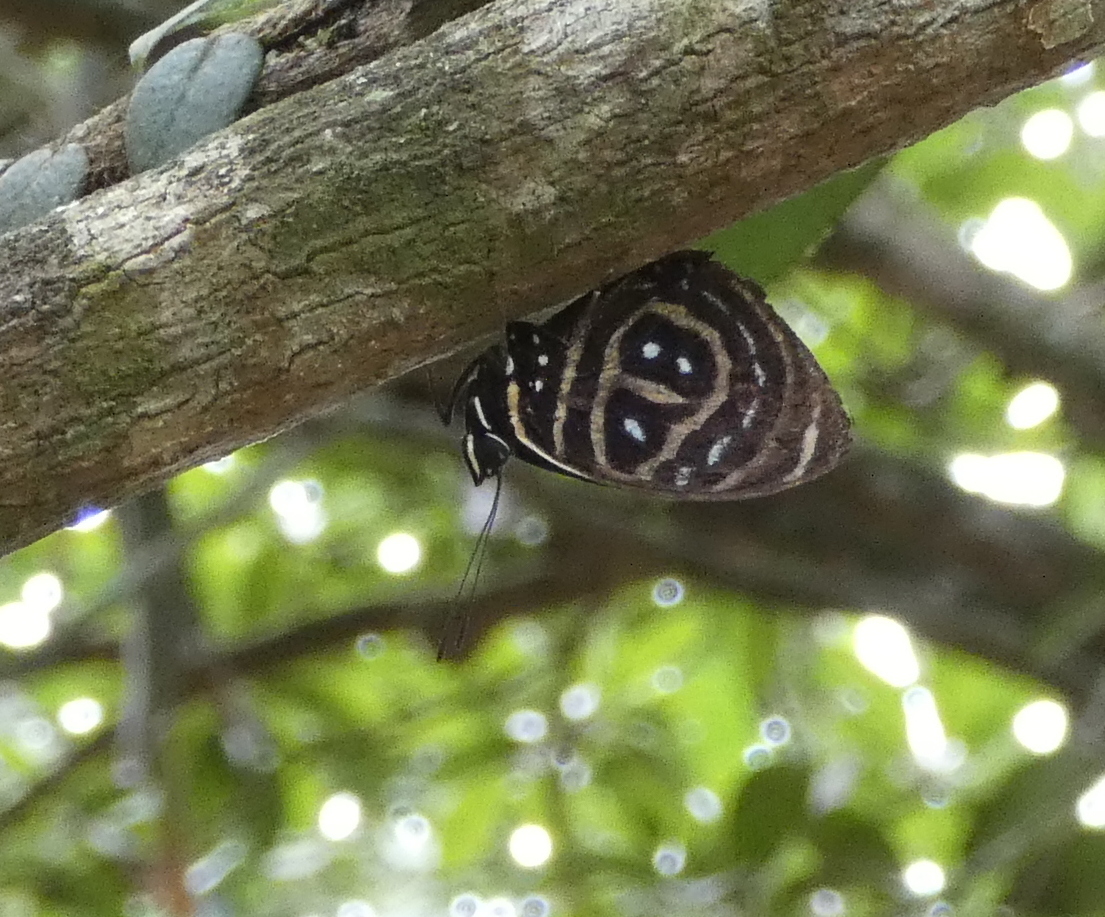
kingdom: Animalia
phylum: Arthropoda
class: Insecta
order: Lepidoptera
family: Nymphalidae
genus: Catagramma
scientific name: Catagramma astarte
